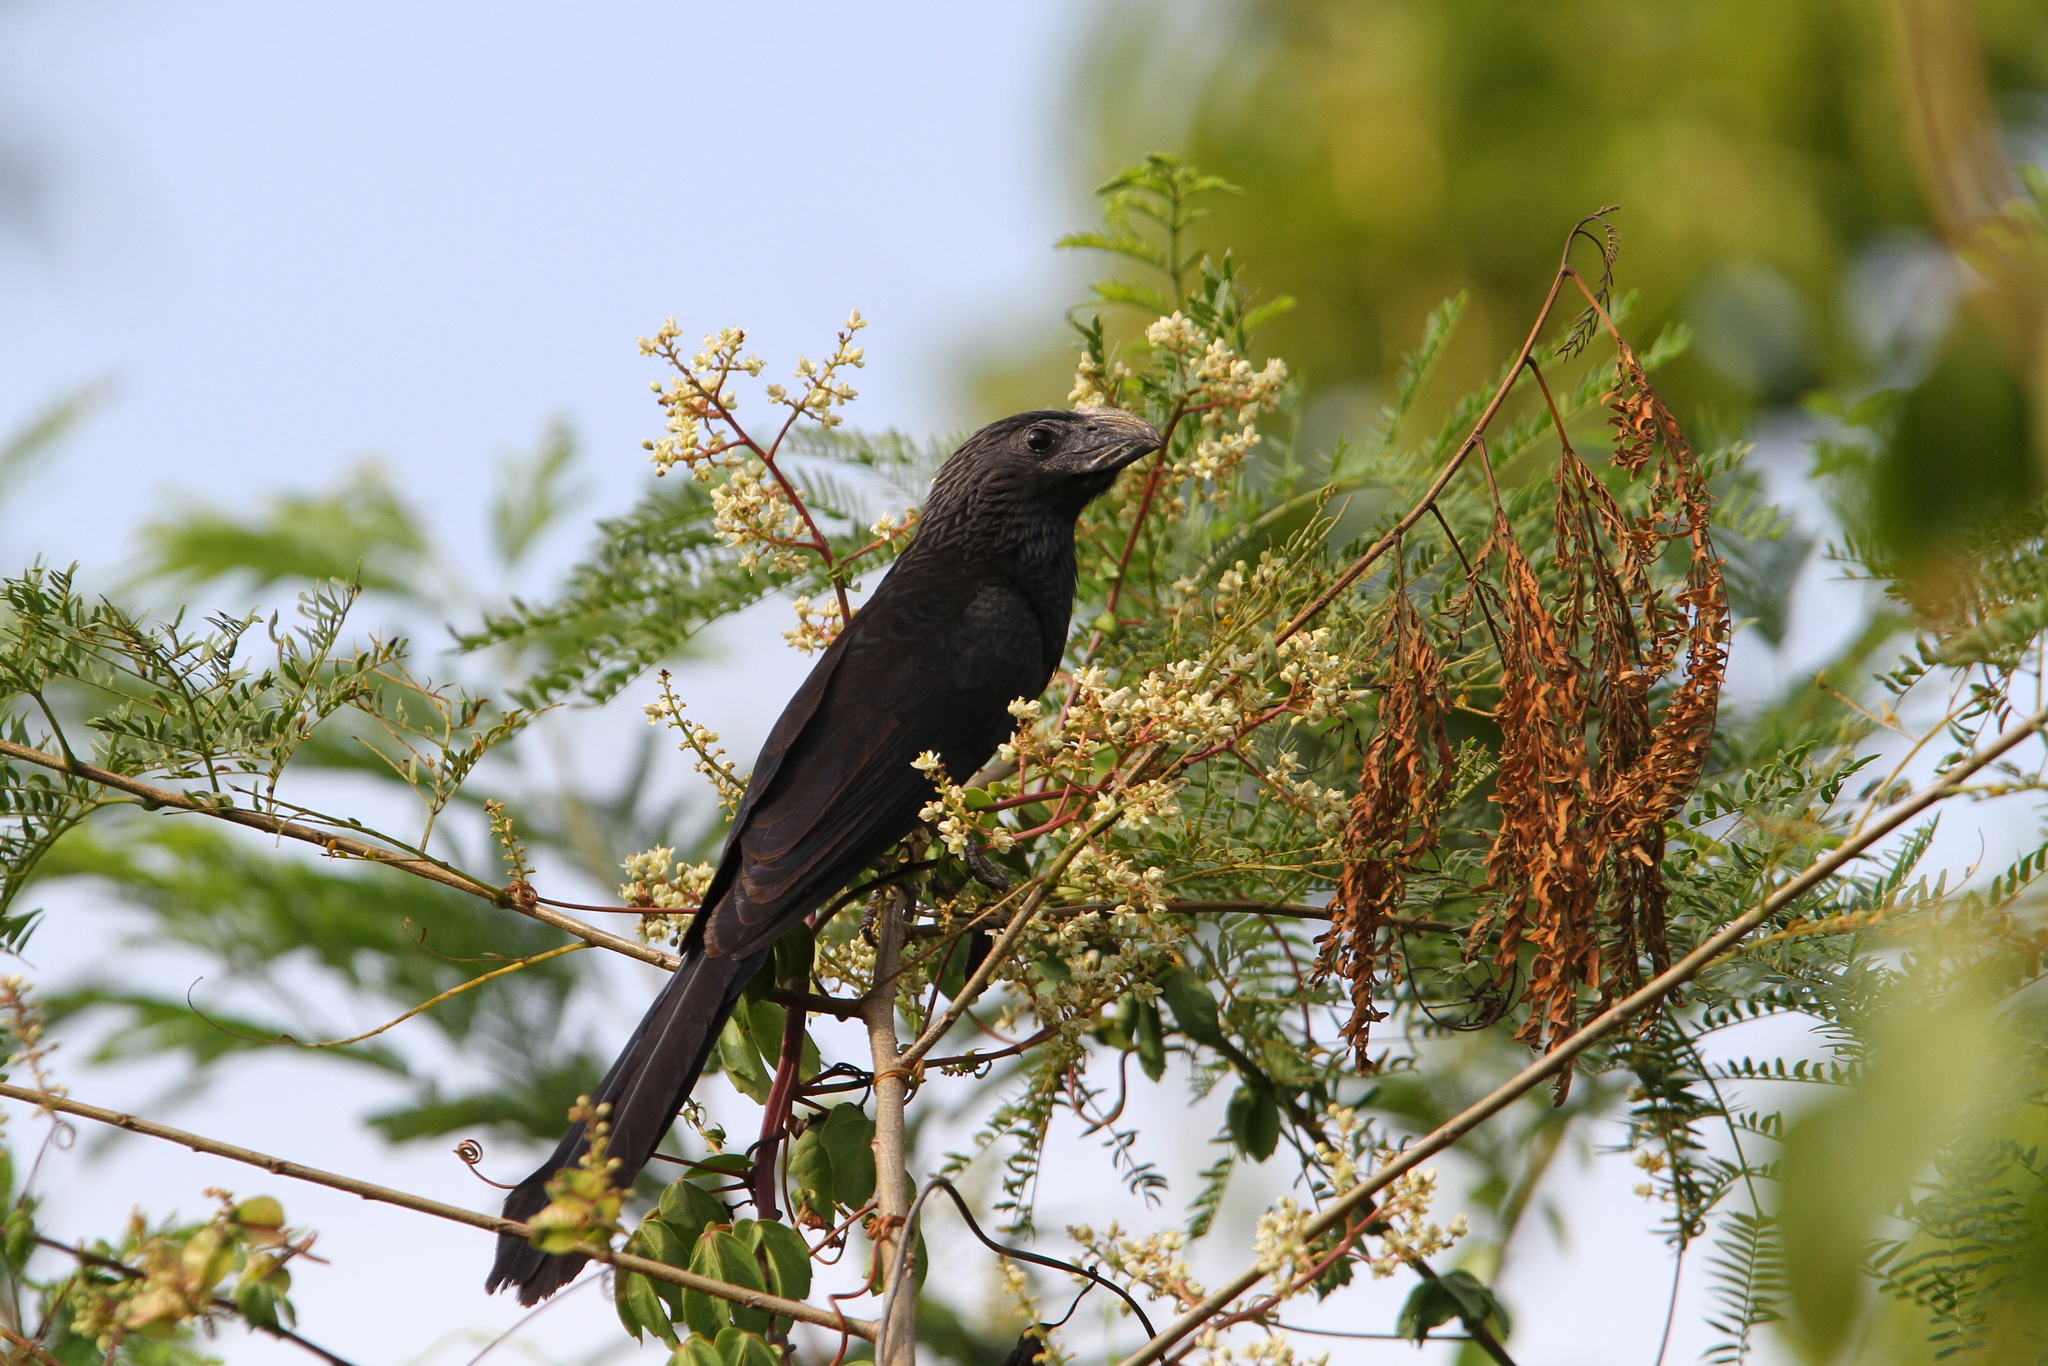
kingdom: Animalia
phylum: Chordata
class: Aves
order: Cuculiformes
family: Cuculidae
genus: Crotophaga
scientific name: Crotophaga sulcirostris
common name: Groove-billed ani
